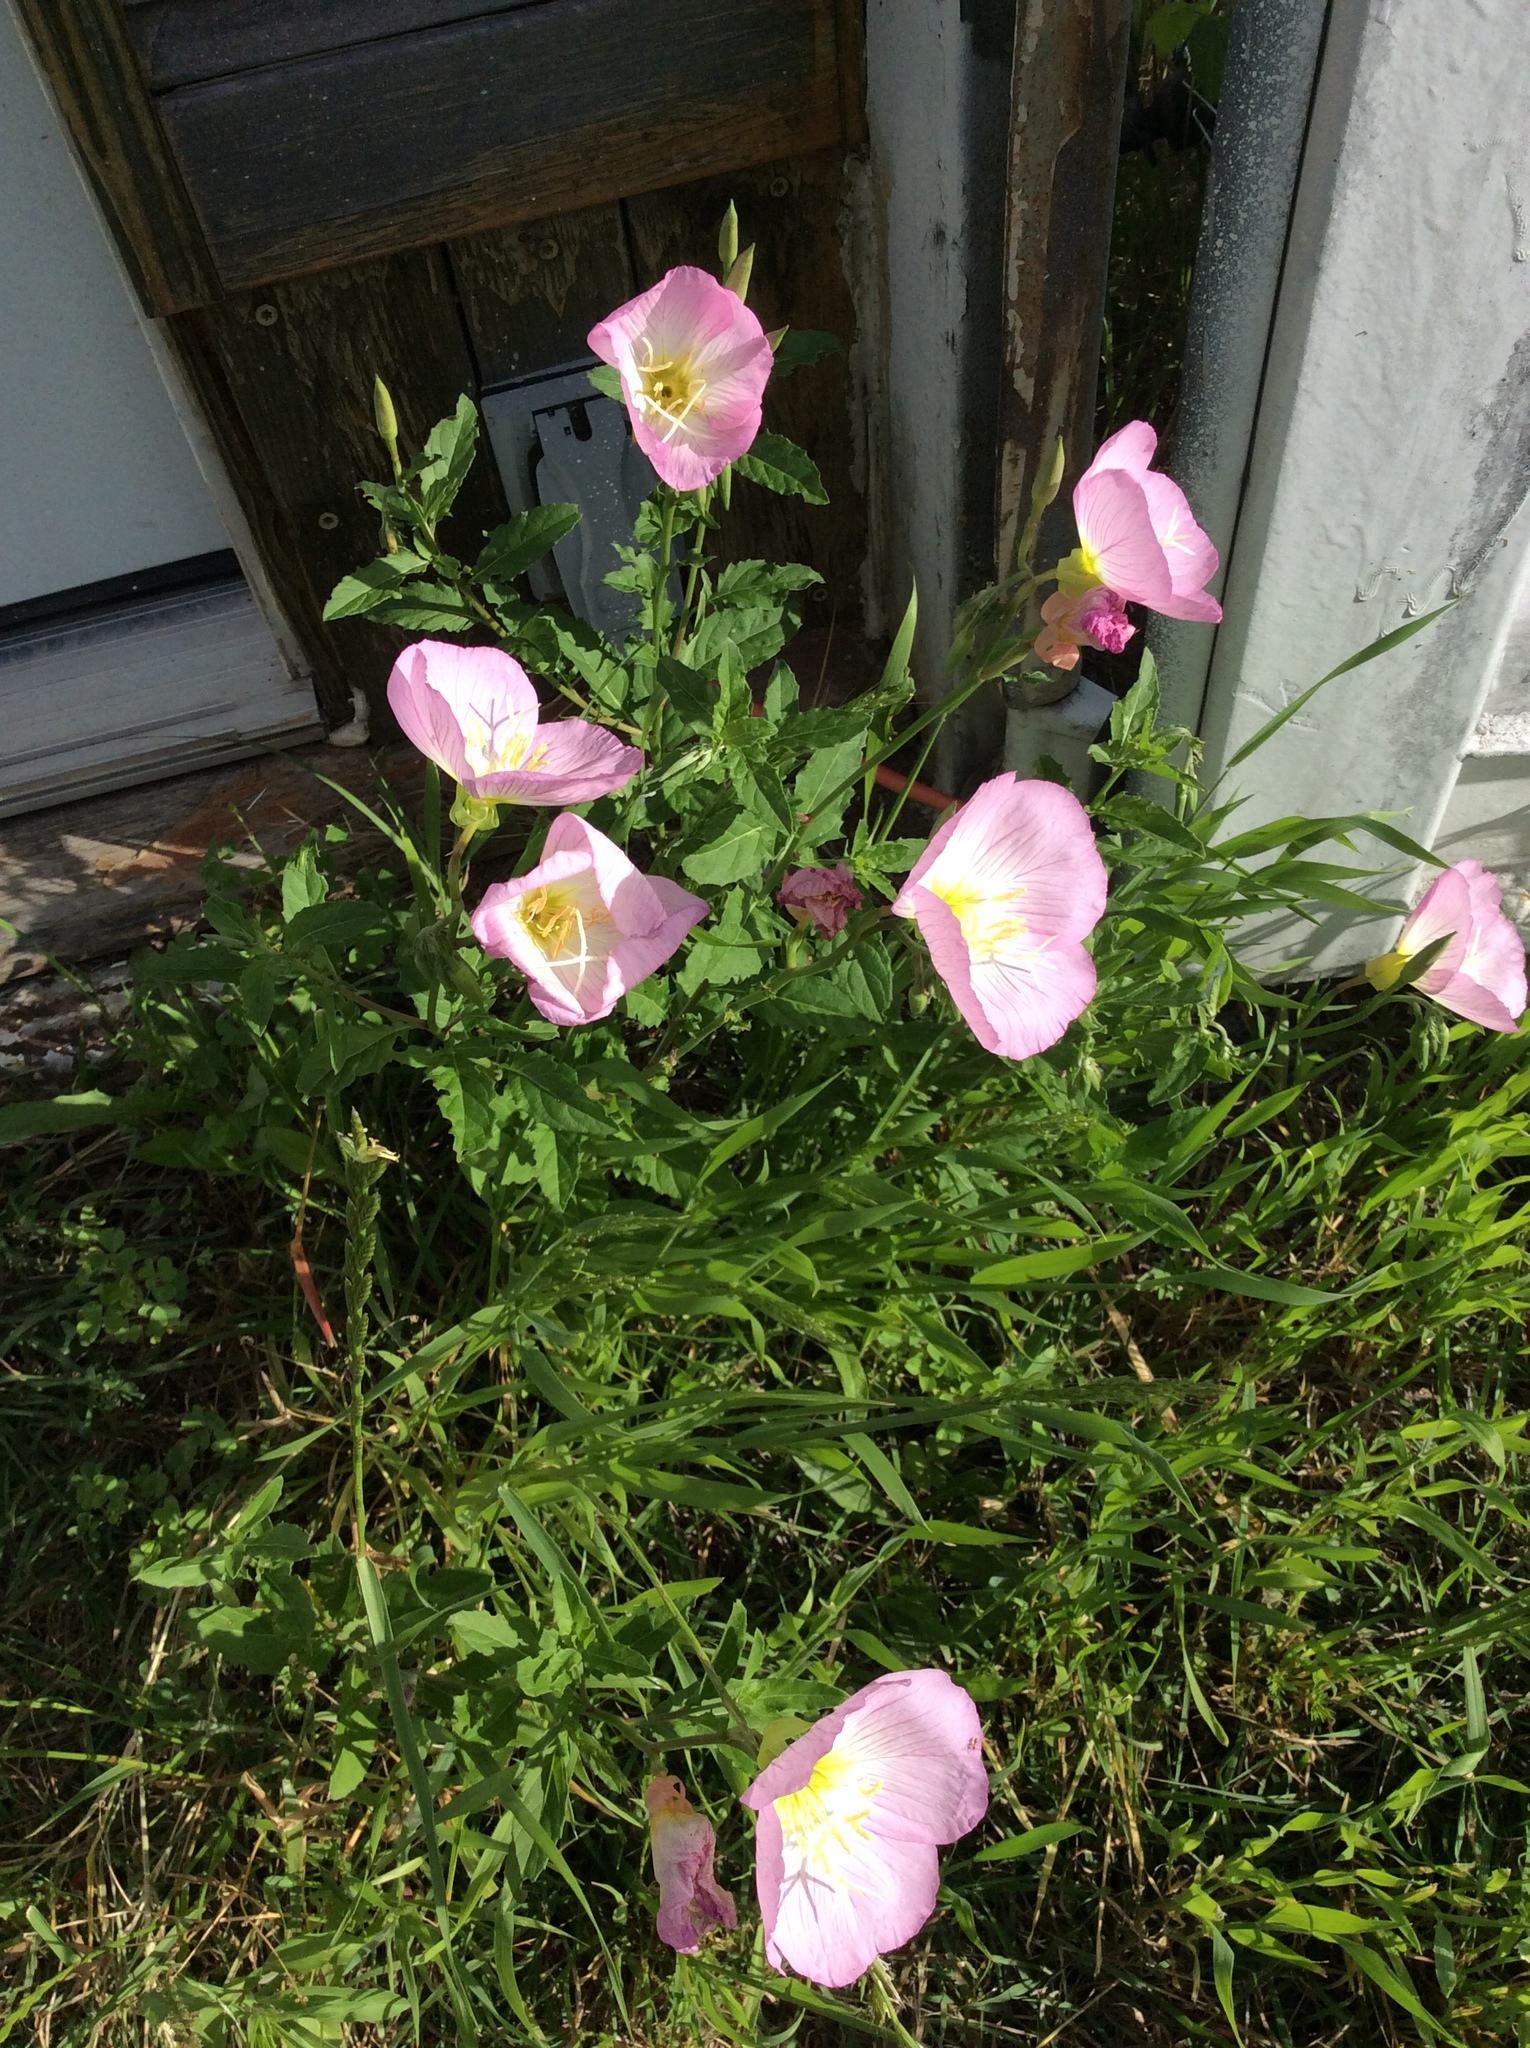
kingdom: Plantae
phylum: Tracheophyta
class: Magnoliopsida
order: Myrtales
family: Onagraceae
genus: Oenothera
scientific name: Oenothera speciosa
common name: White evening-primrose
